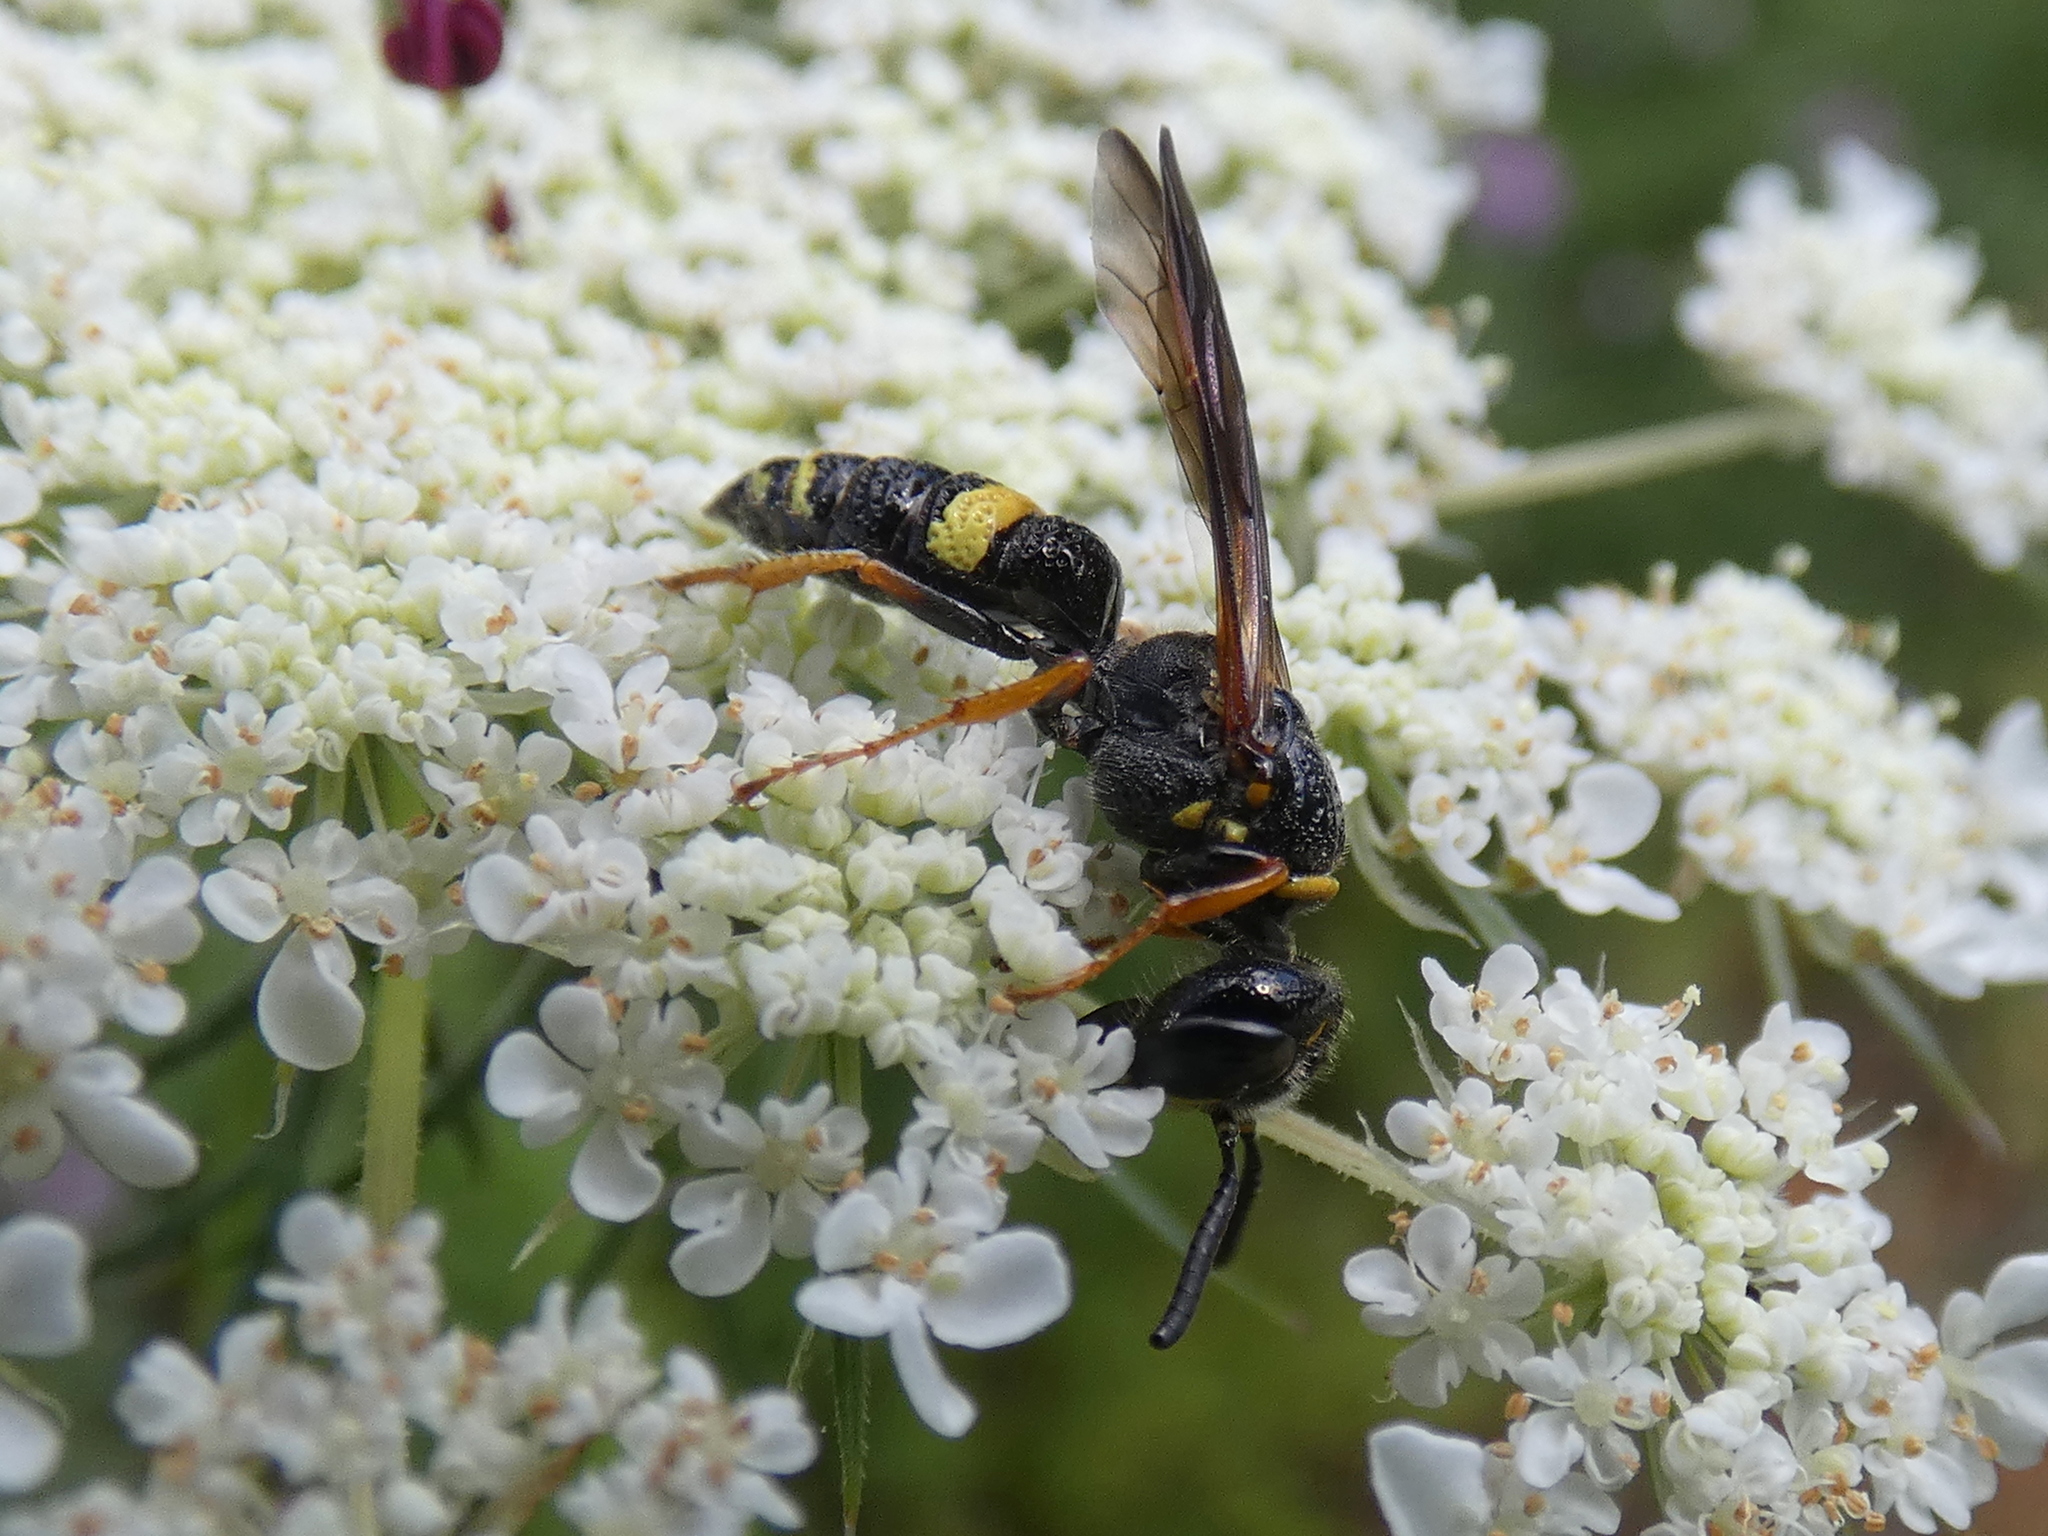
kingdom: Animalia
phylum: Arthropoda
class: Insecta
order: Hymenoptera
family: Crabronidae
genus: Philanthus
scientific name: Philanthus gibbosus
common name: Humped beewolf
